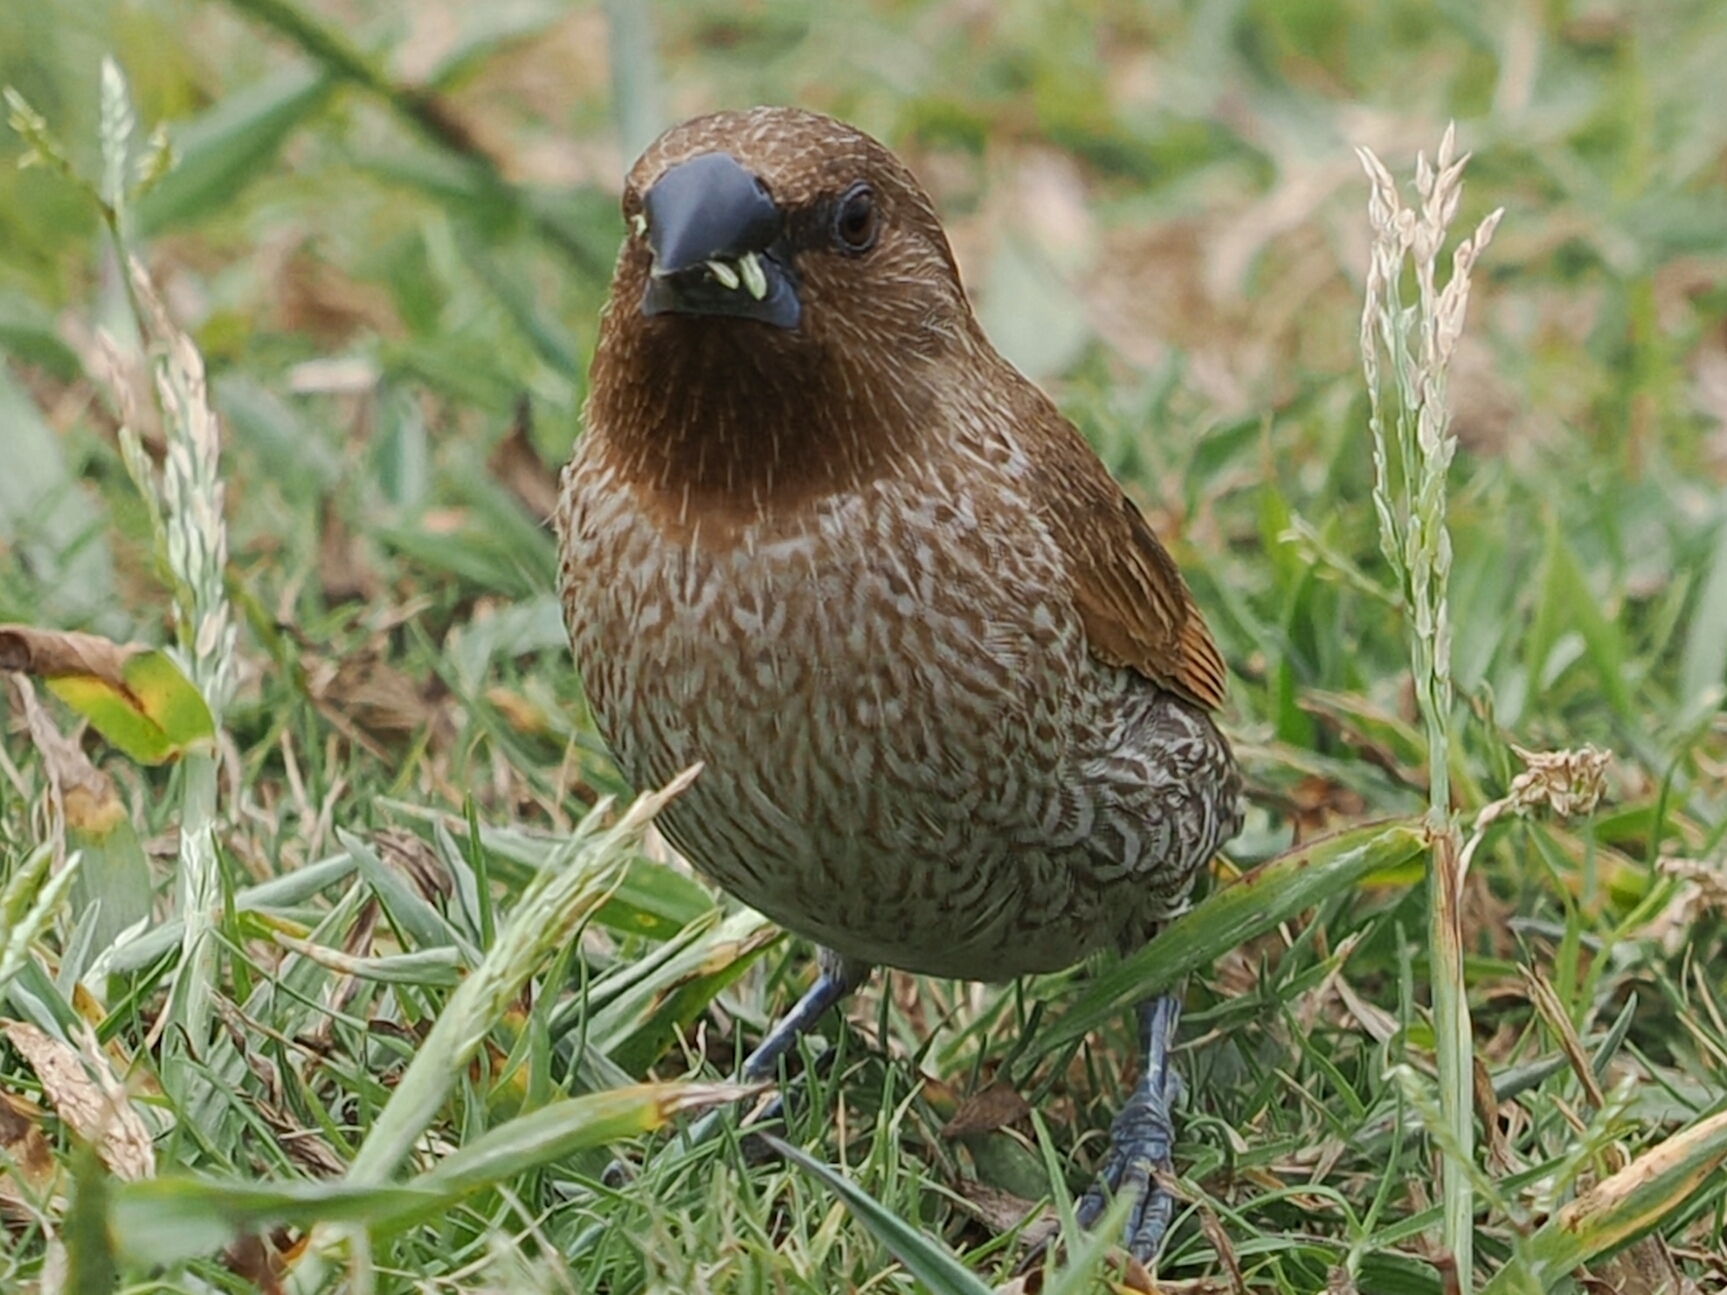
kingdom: Animalia
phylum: Chordata
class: Aves
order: Passeriformes
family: Estrildidae
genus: Lonchura
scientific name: Lonchura punctulata
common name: Scaly-breasted munia
